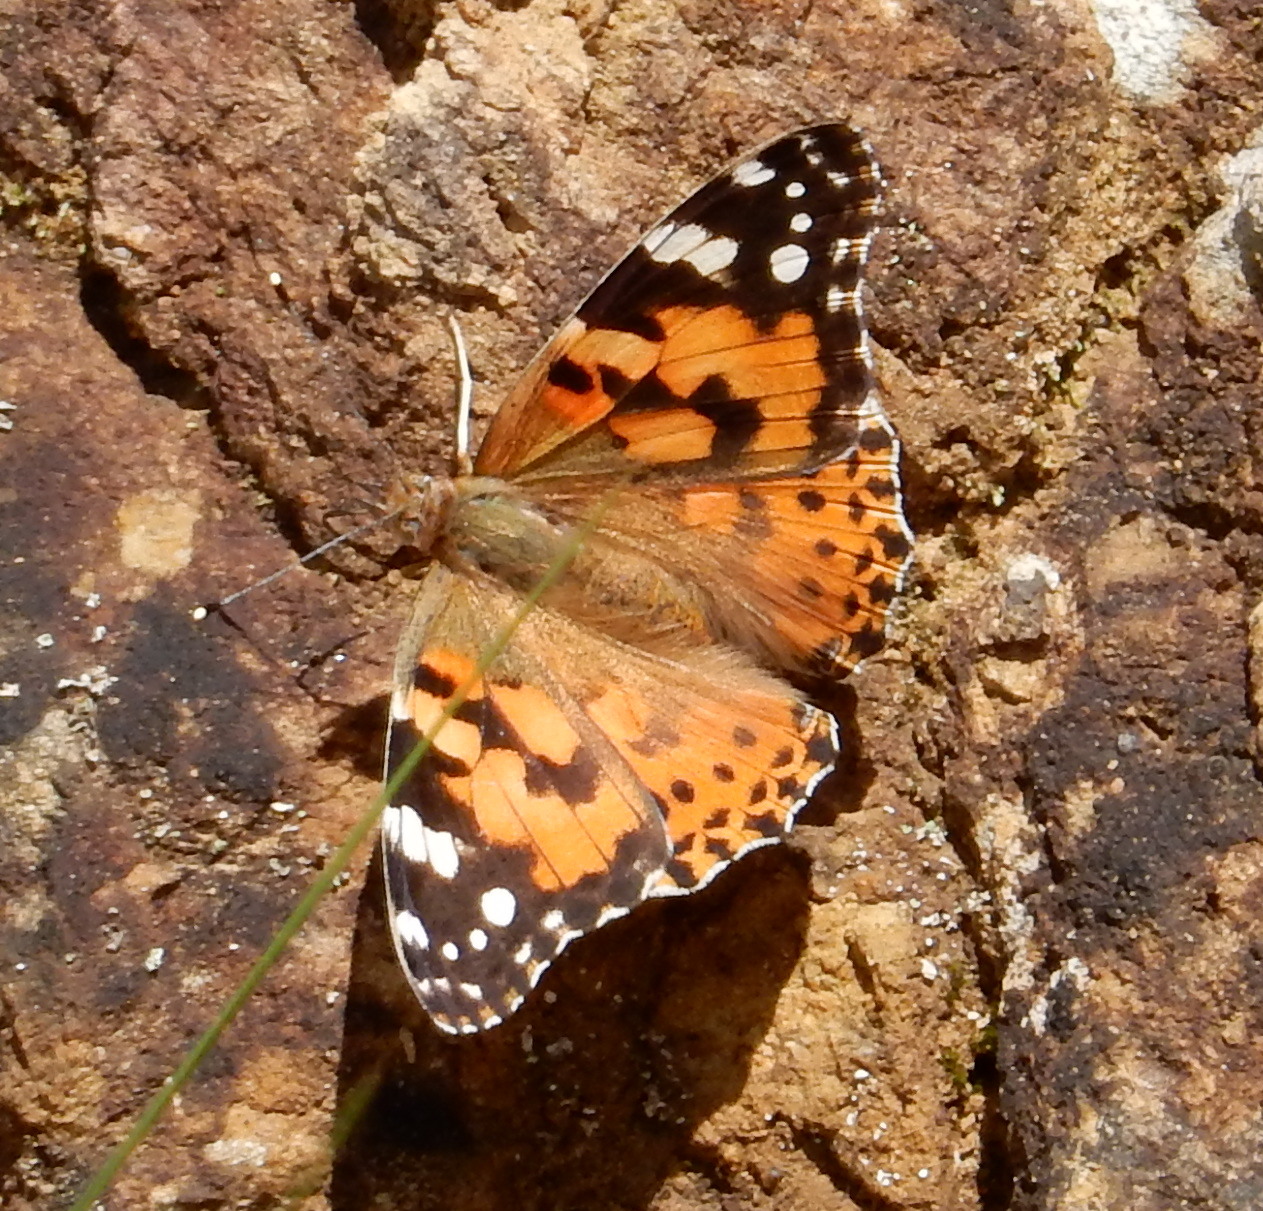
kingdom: Animalia
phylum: Arthropoda
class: Insecta
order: Lepidoptera
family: Nymphalidae
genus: Vanessa
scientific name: Vanessa cardui
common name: Painted lady
